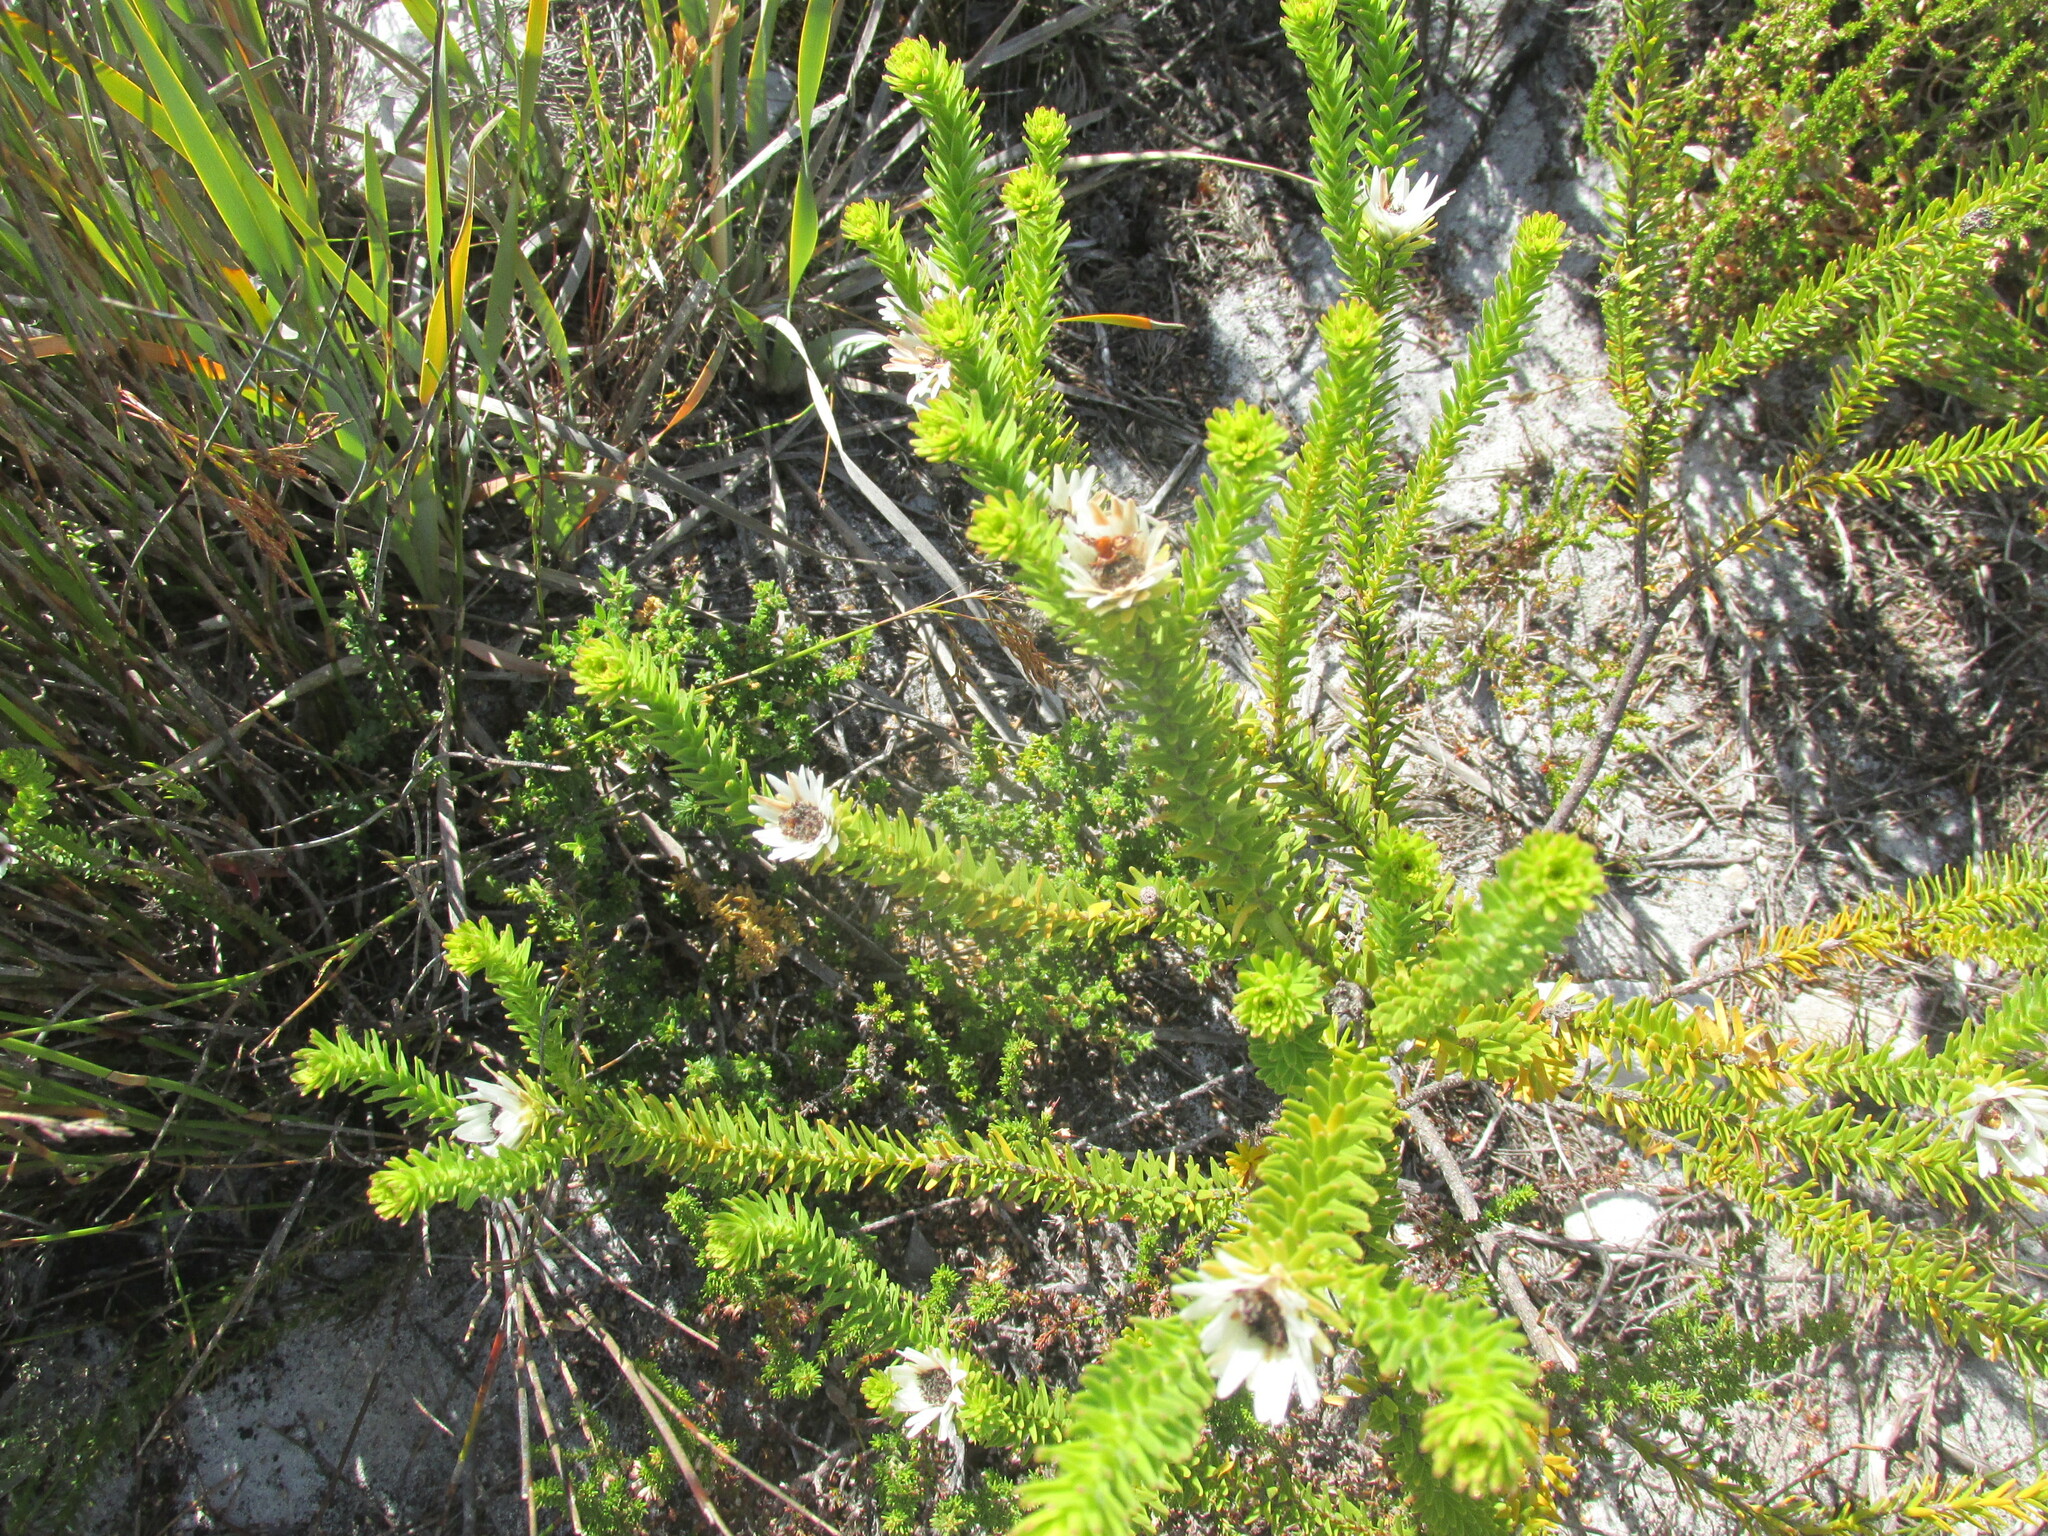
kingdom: Plantae
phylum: Tracheophyta
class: Magnoliopsida
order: Bruniales
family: Bruniaceae
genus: Staavia
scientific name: Staavia dodii
